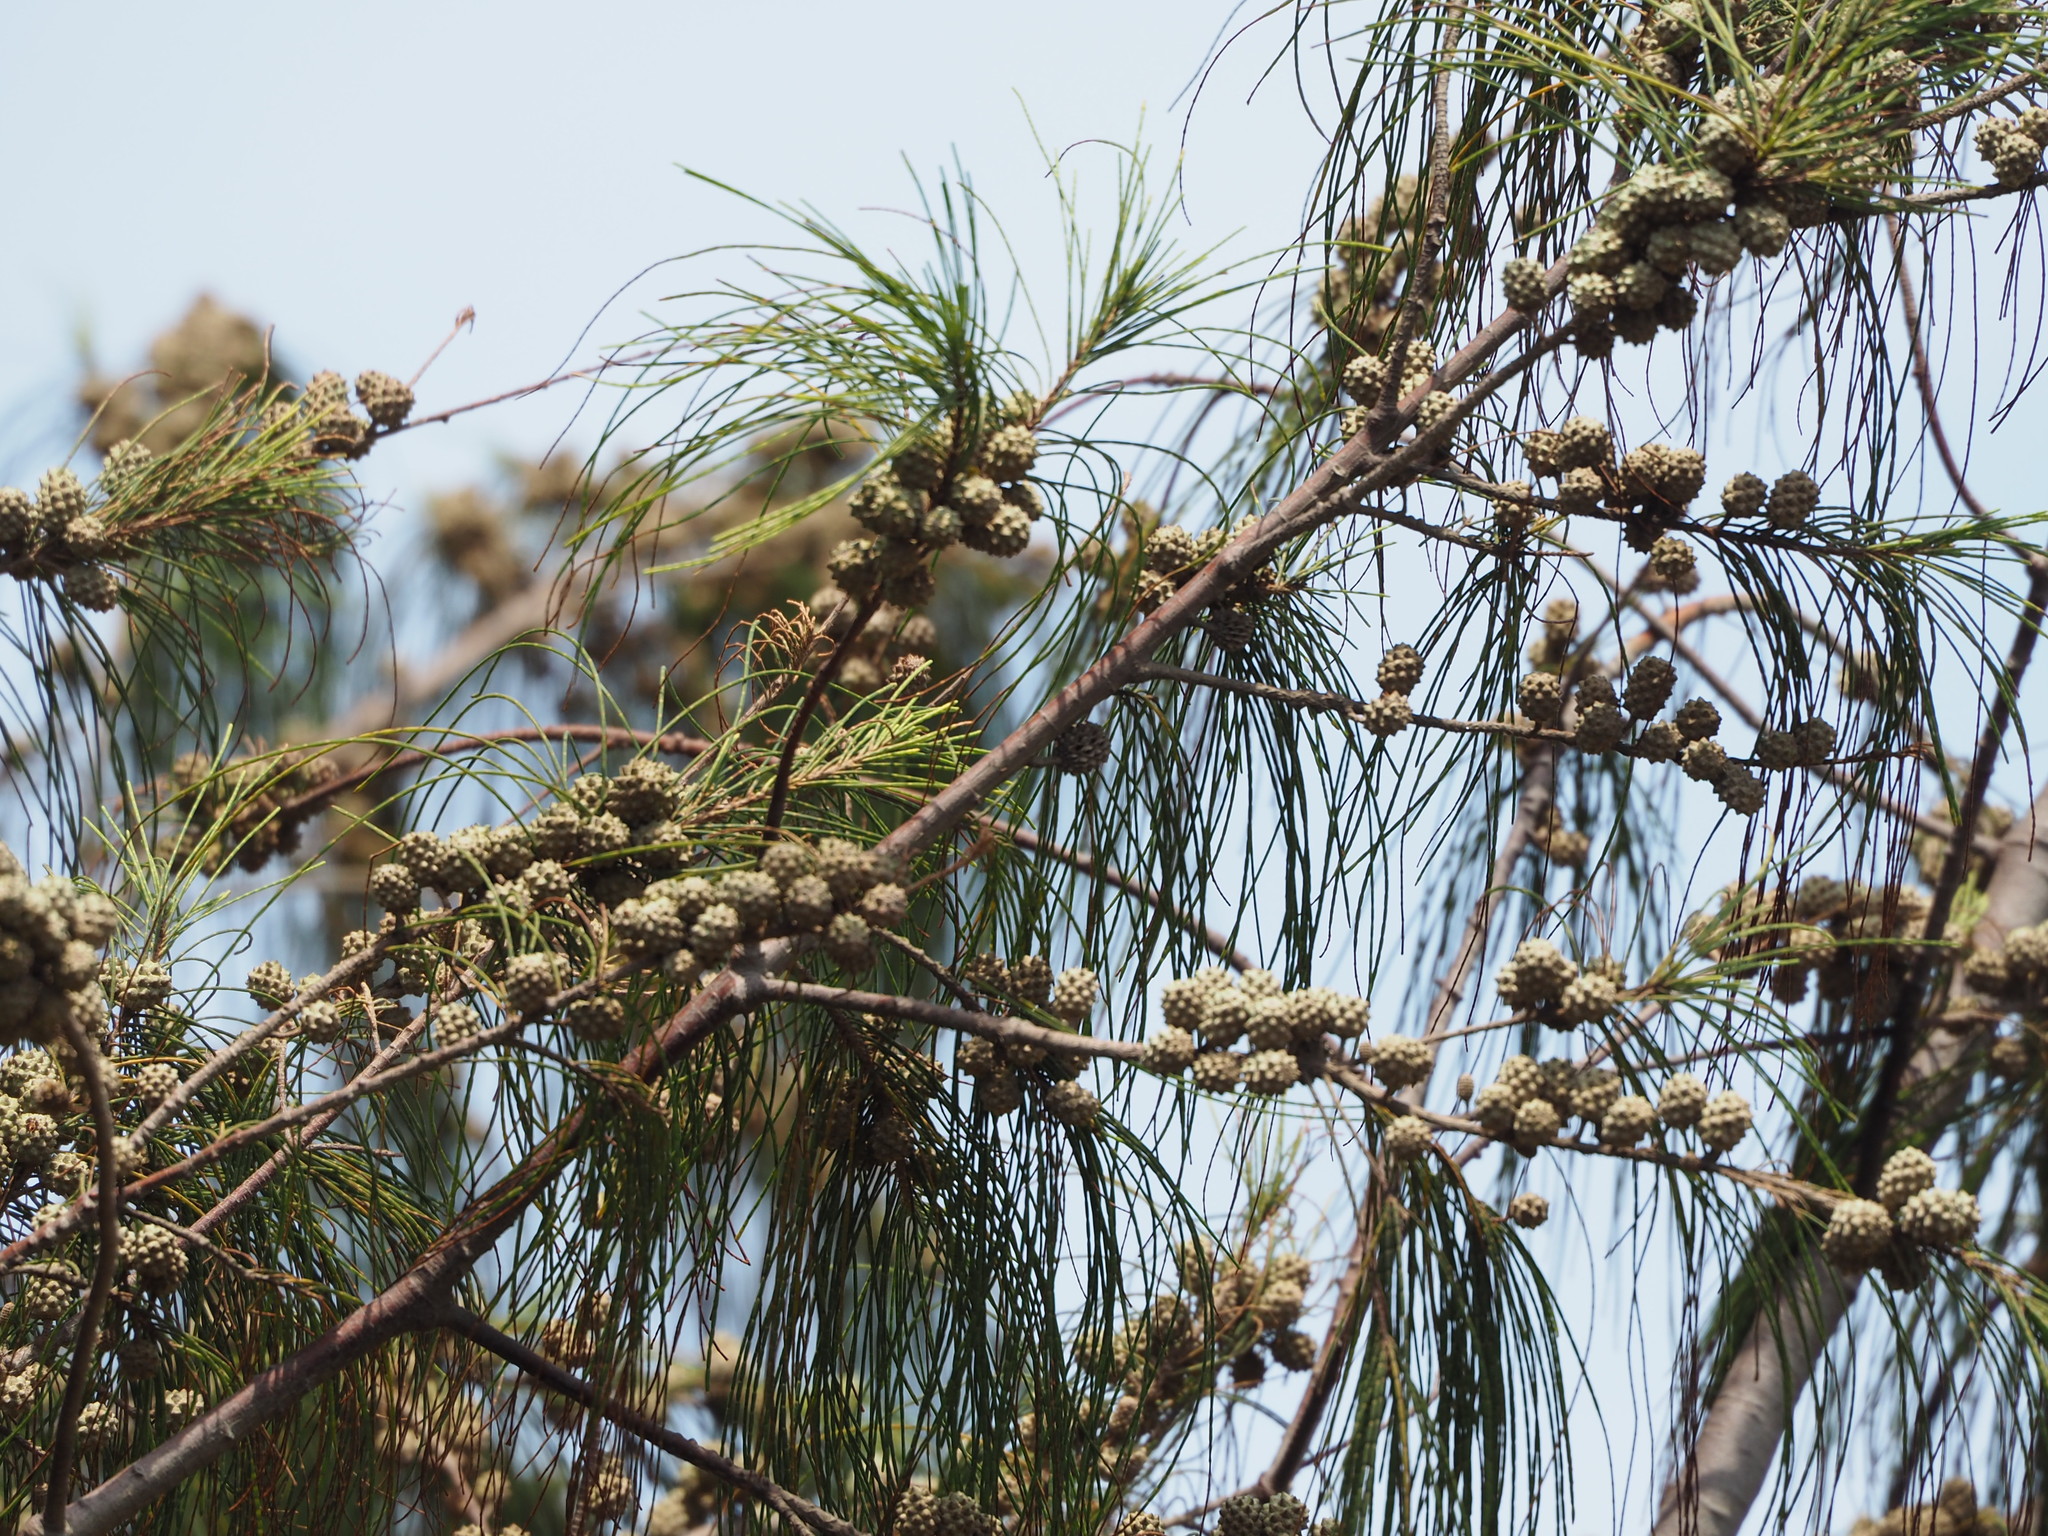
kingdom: Plantae
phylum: Tracheophyta
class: Magnoliopsida
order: Fagales
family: Casuarinaceae
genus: Casuarina
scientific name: Casuarina equisetifolia
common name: Beach sheoak
